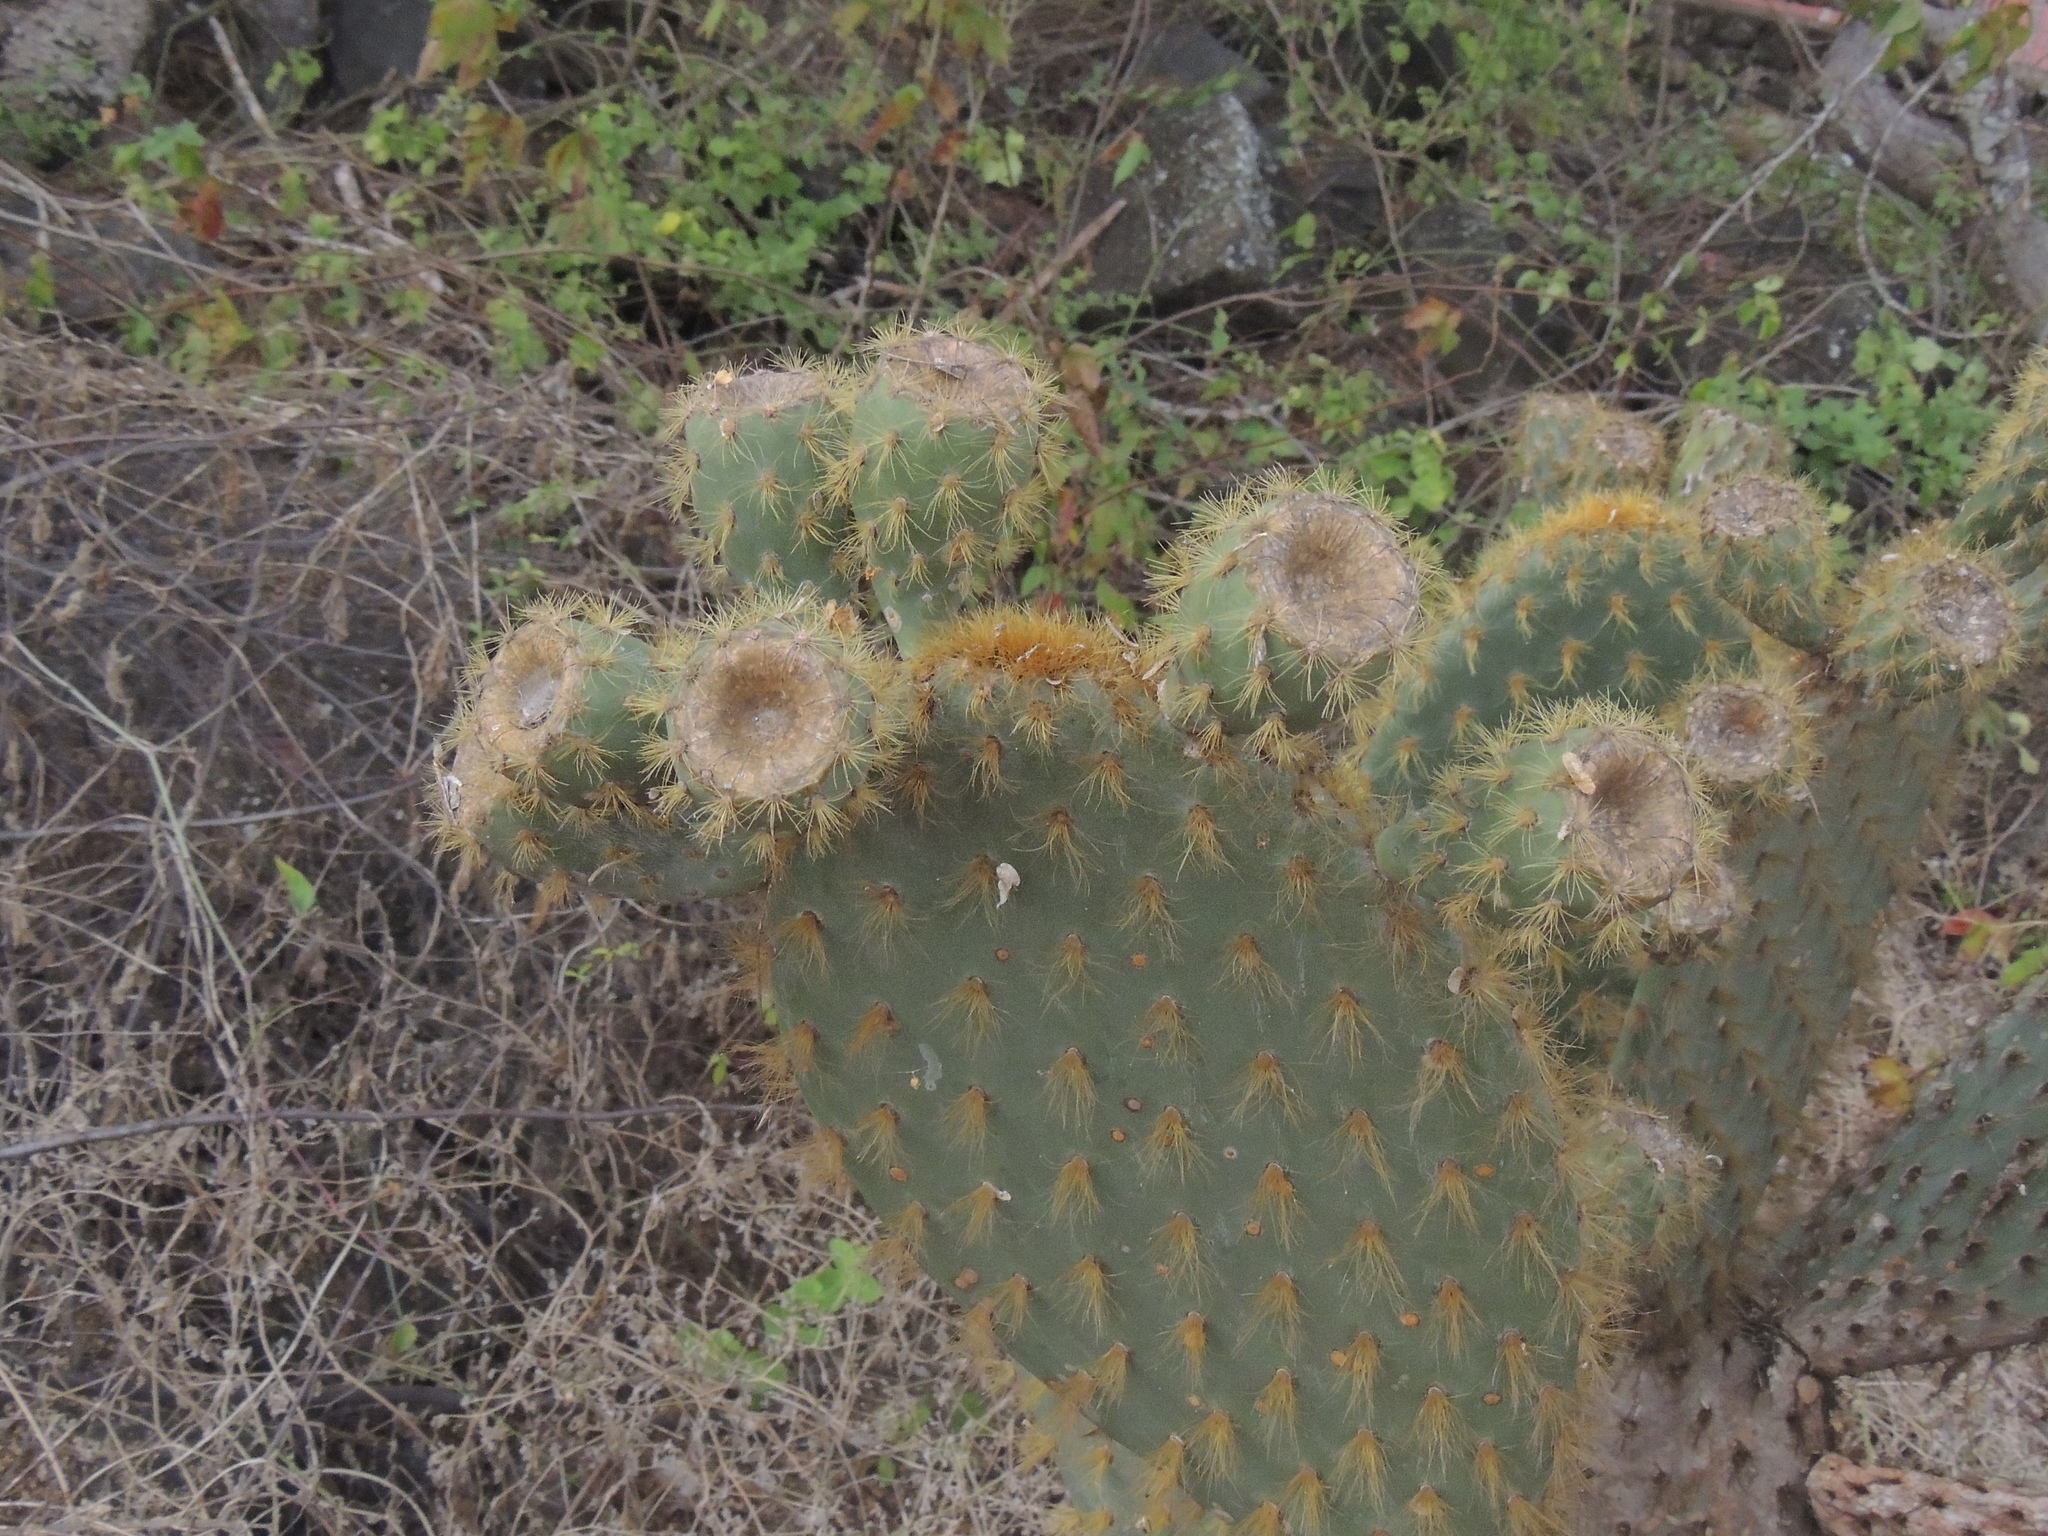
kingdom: Plantae
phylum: Tracheophyta
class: Magnoliopsida
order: Caryophyllales
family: Cactaceae
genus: Opuntia
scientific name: Opuntia galapageia
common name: Galápagos prickly pear
